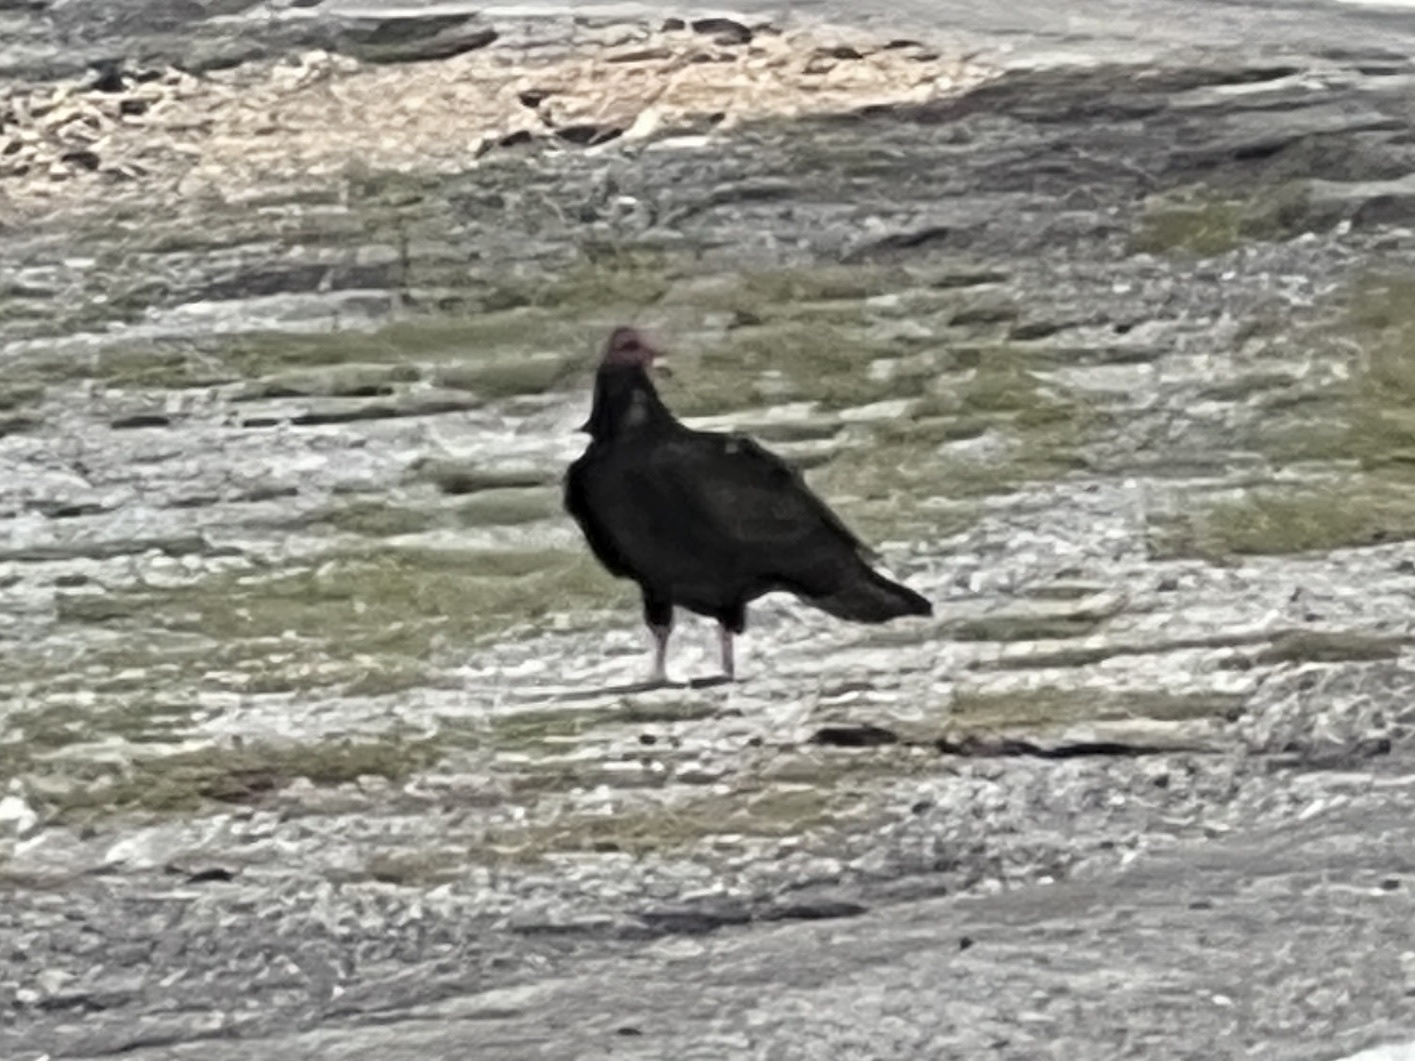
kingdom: Animalia
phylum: Chordata
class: Aves
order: Accipitriformes
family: Cathartidae
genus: Cathartes
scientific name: Cathartes aura
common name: Turkey vulture
